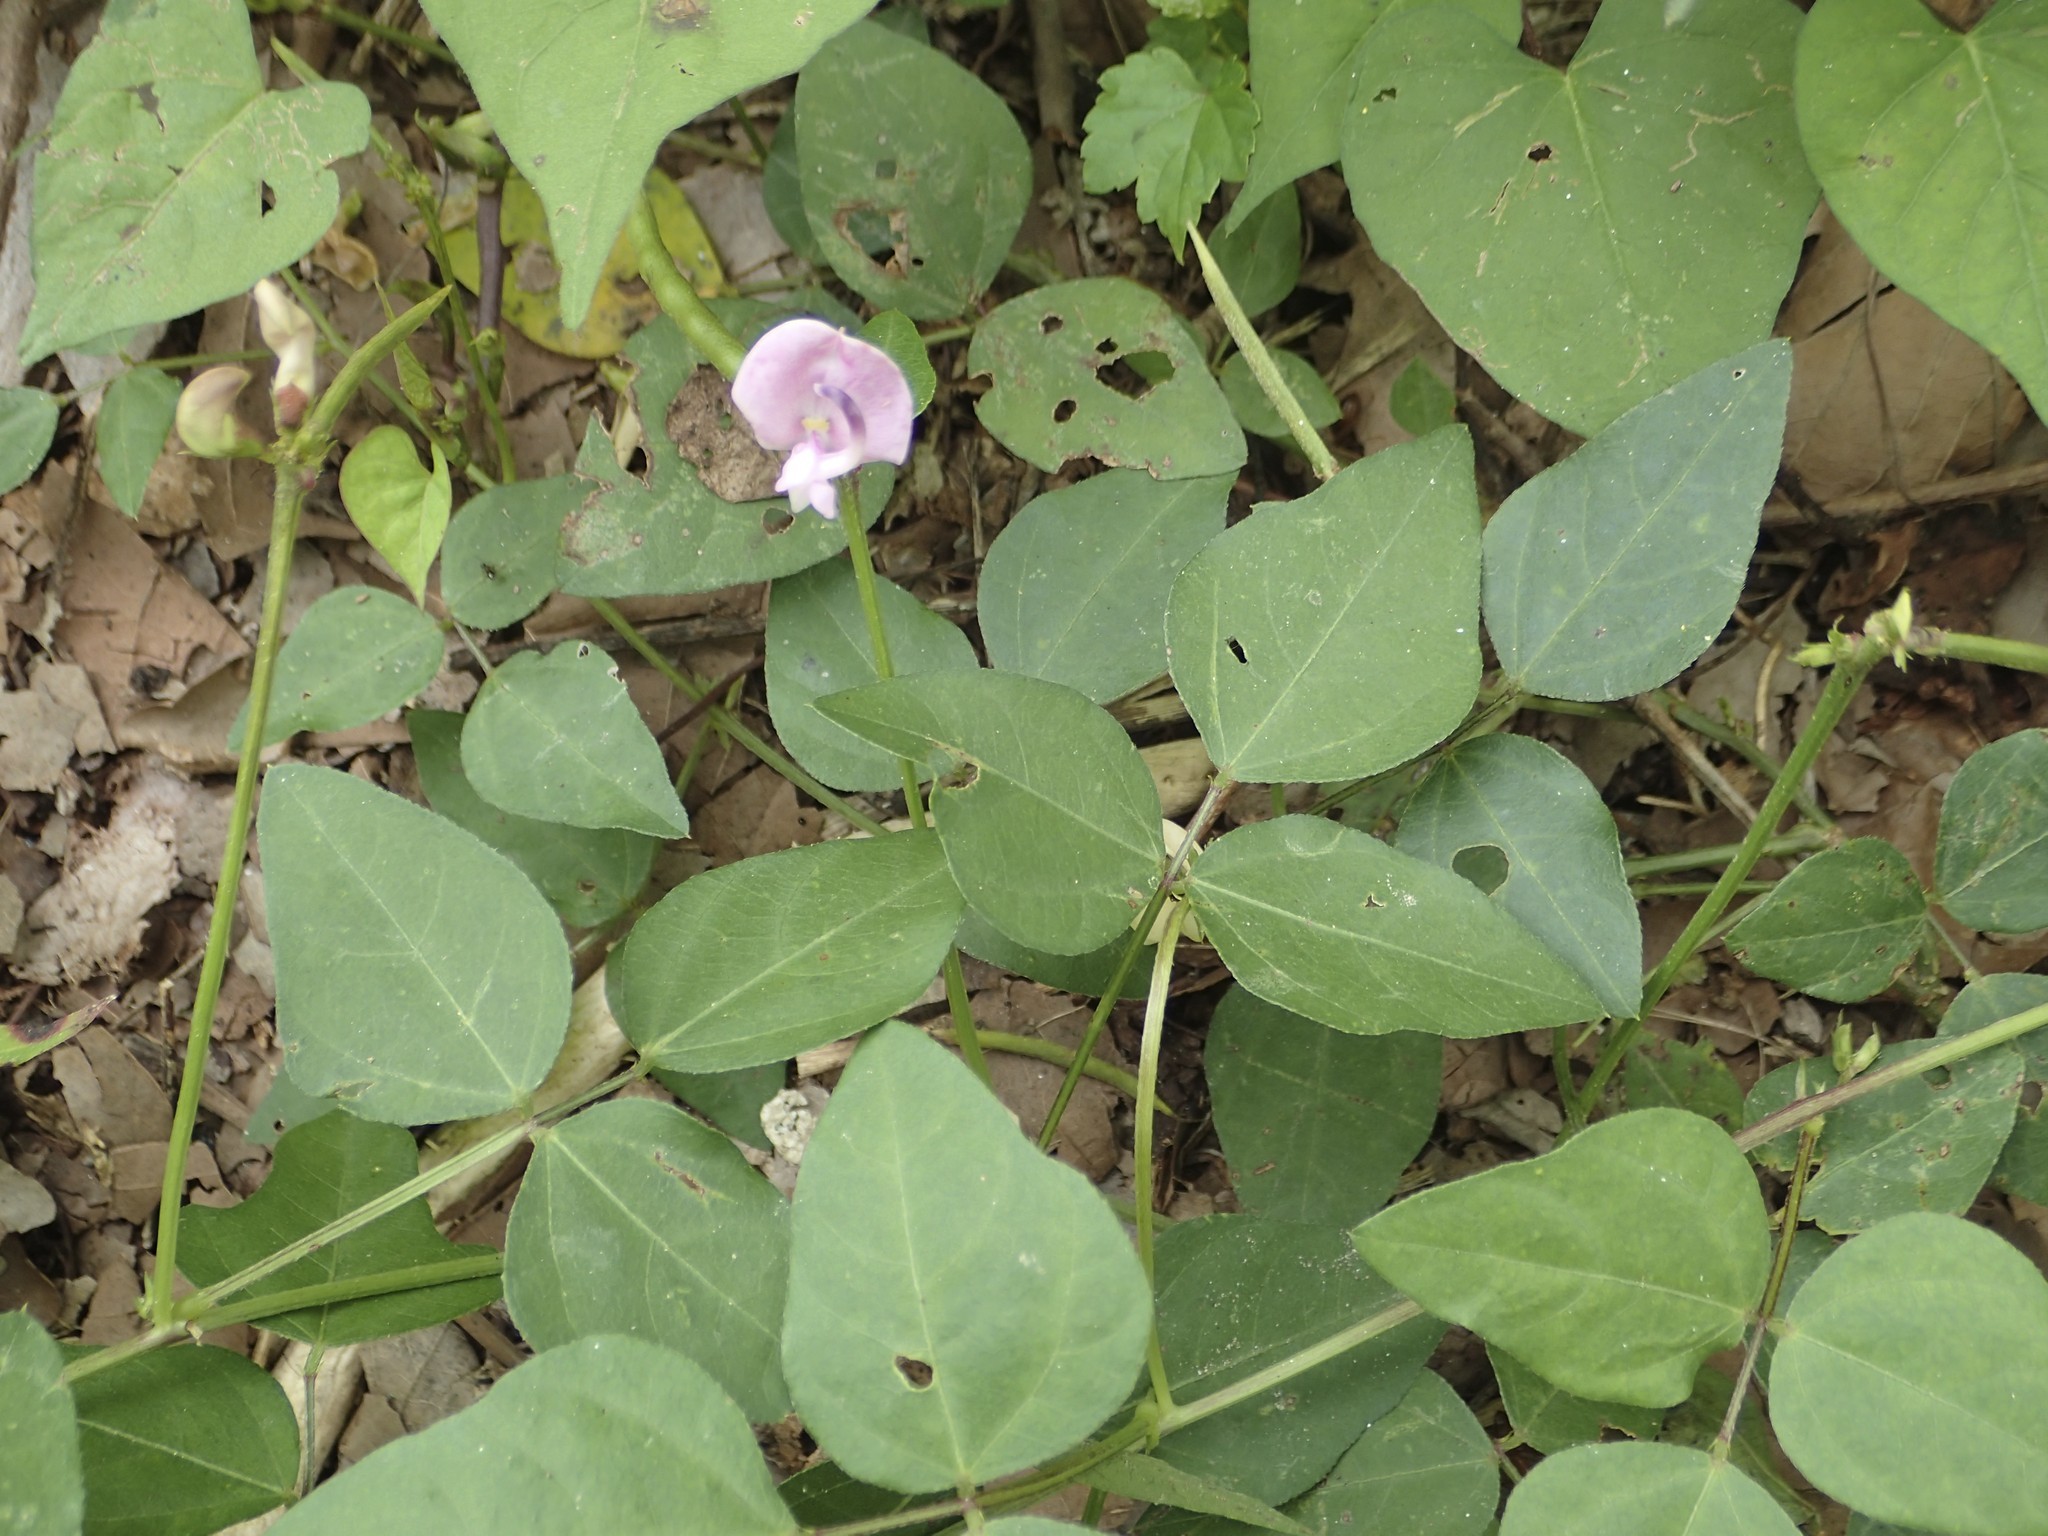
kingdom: Plantae
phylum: Tracheophyta
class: Magnoliopsida
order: Fabales
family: Fabaceae
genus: Strophostyles
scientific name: Strophostyles helvola
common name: Trailing wild bean
